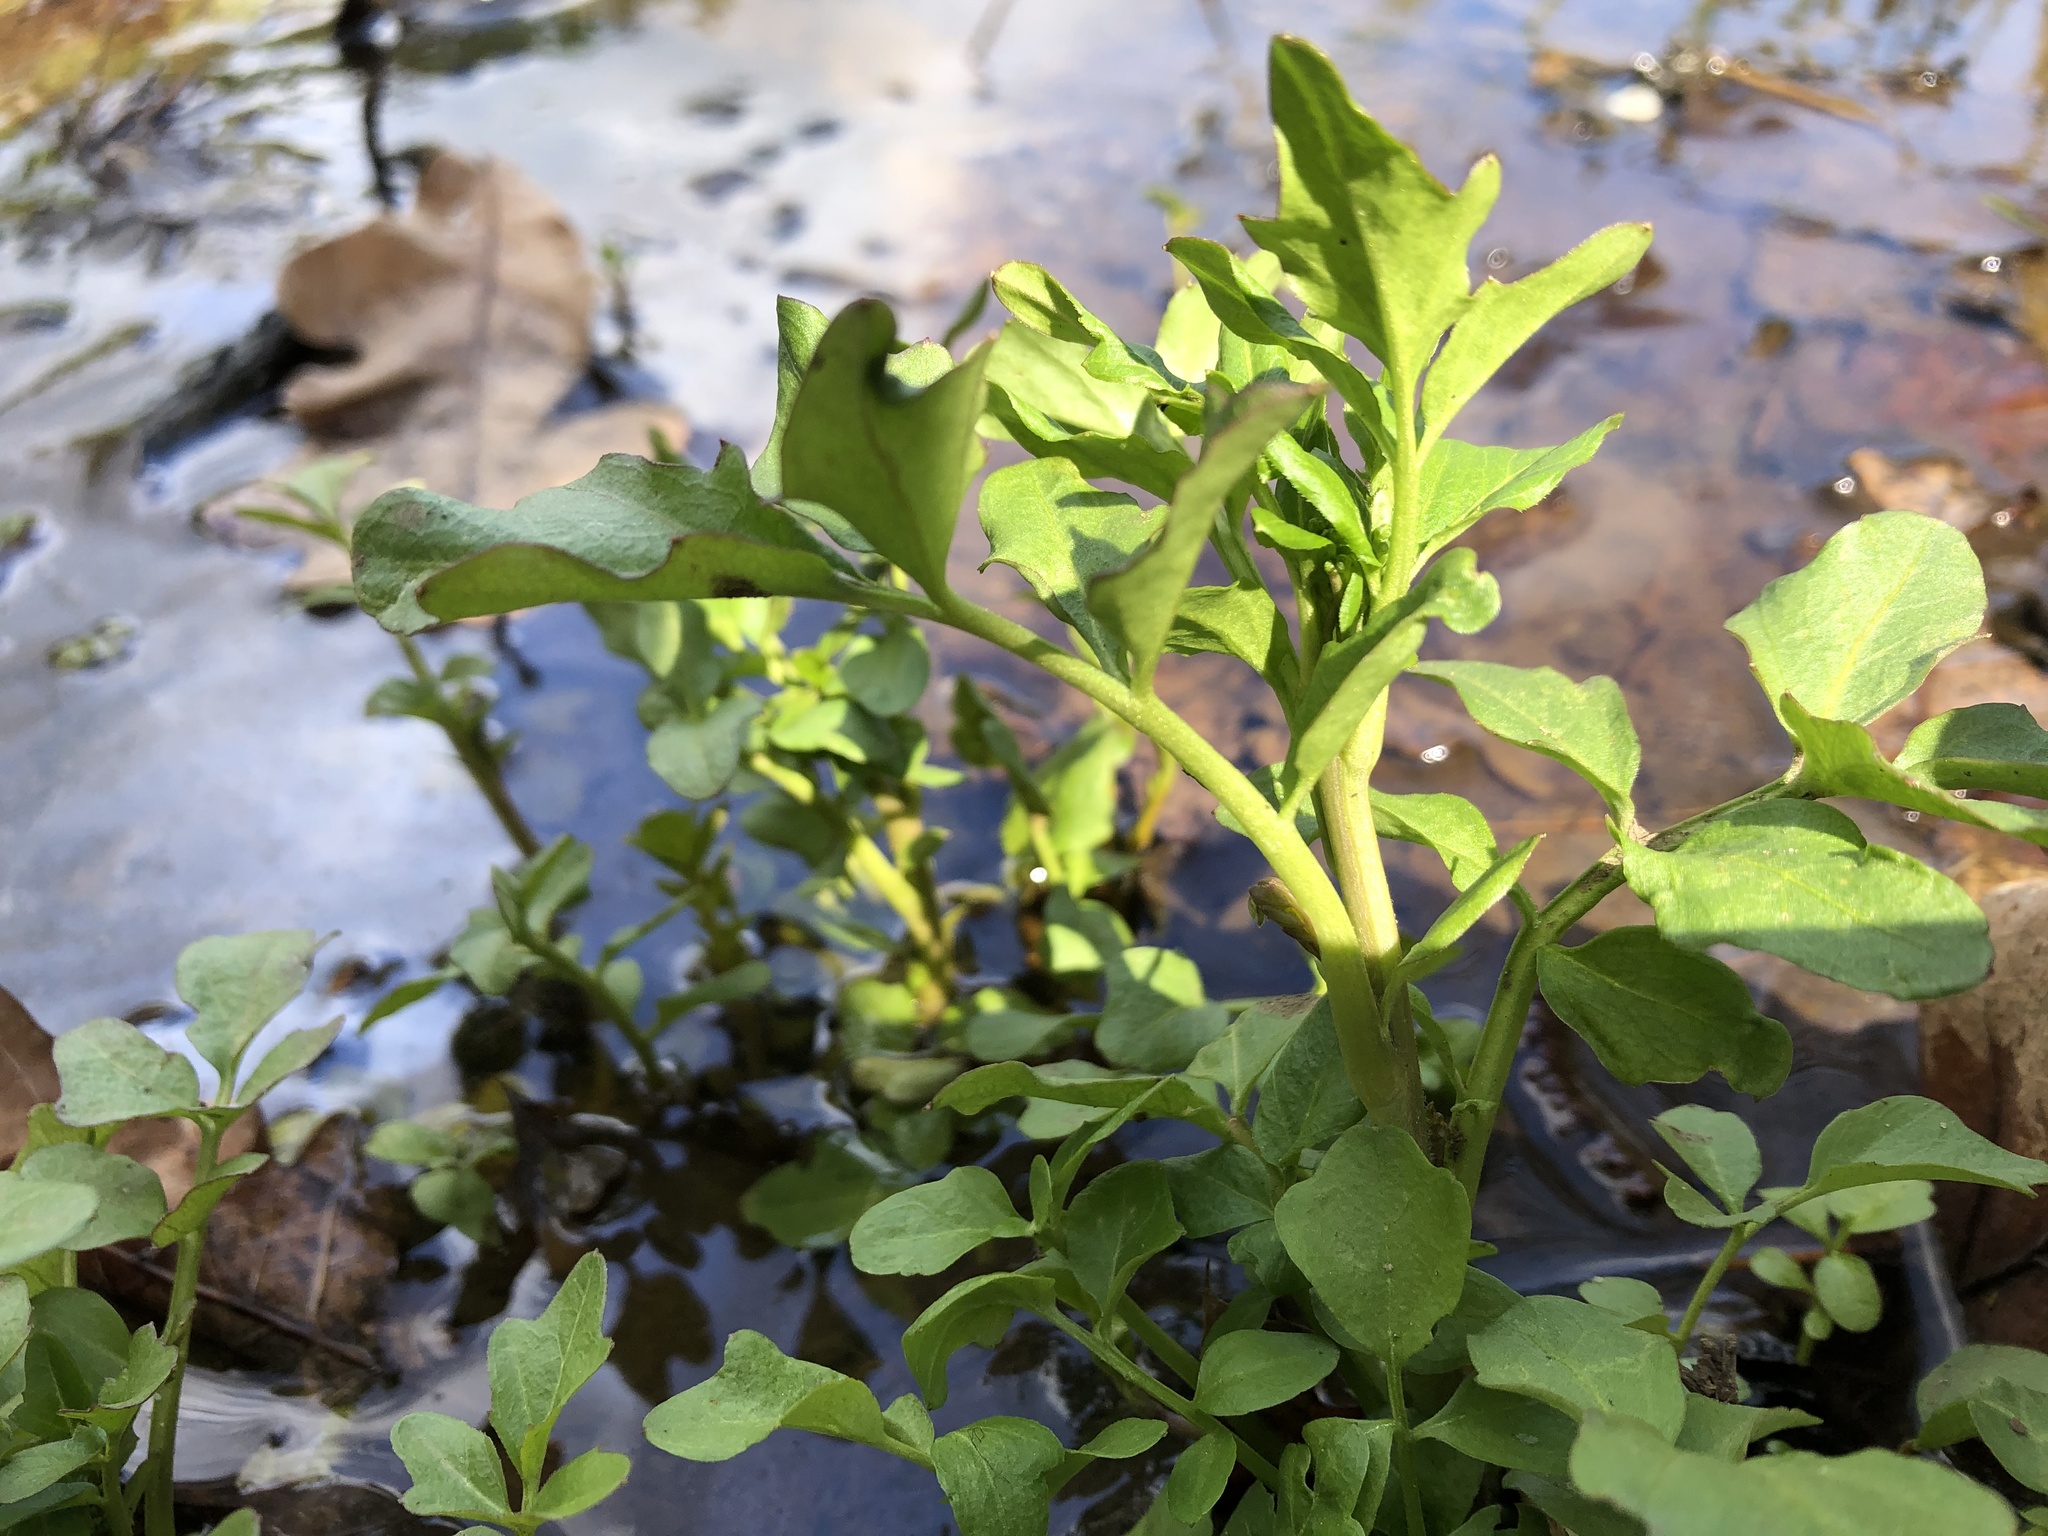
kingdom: Plantae
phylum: Tracheophyta
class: Magnoliopsida
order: Brassicales
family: Brassicaceae
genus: Cardamine
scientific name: Cardamine amara
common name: Large bitter-cress
